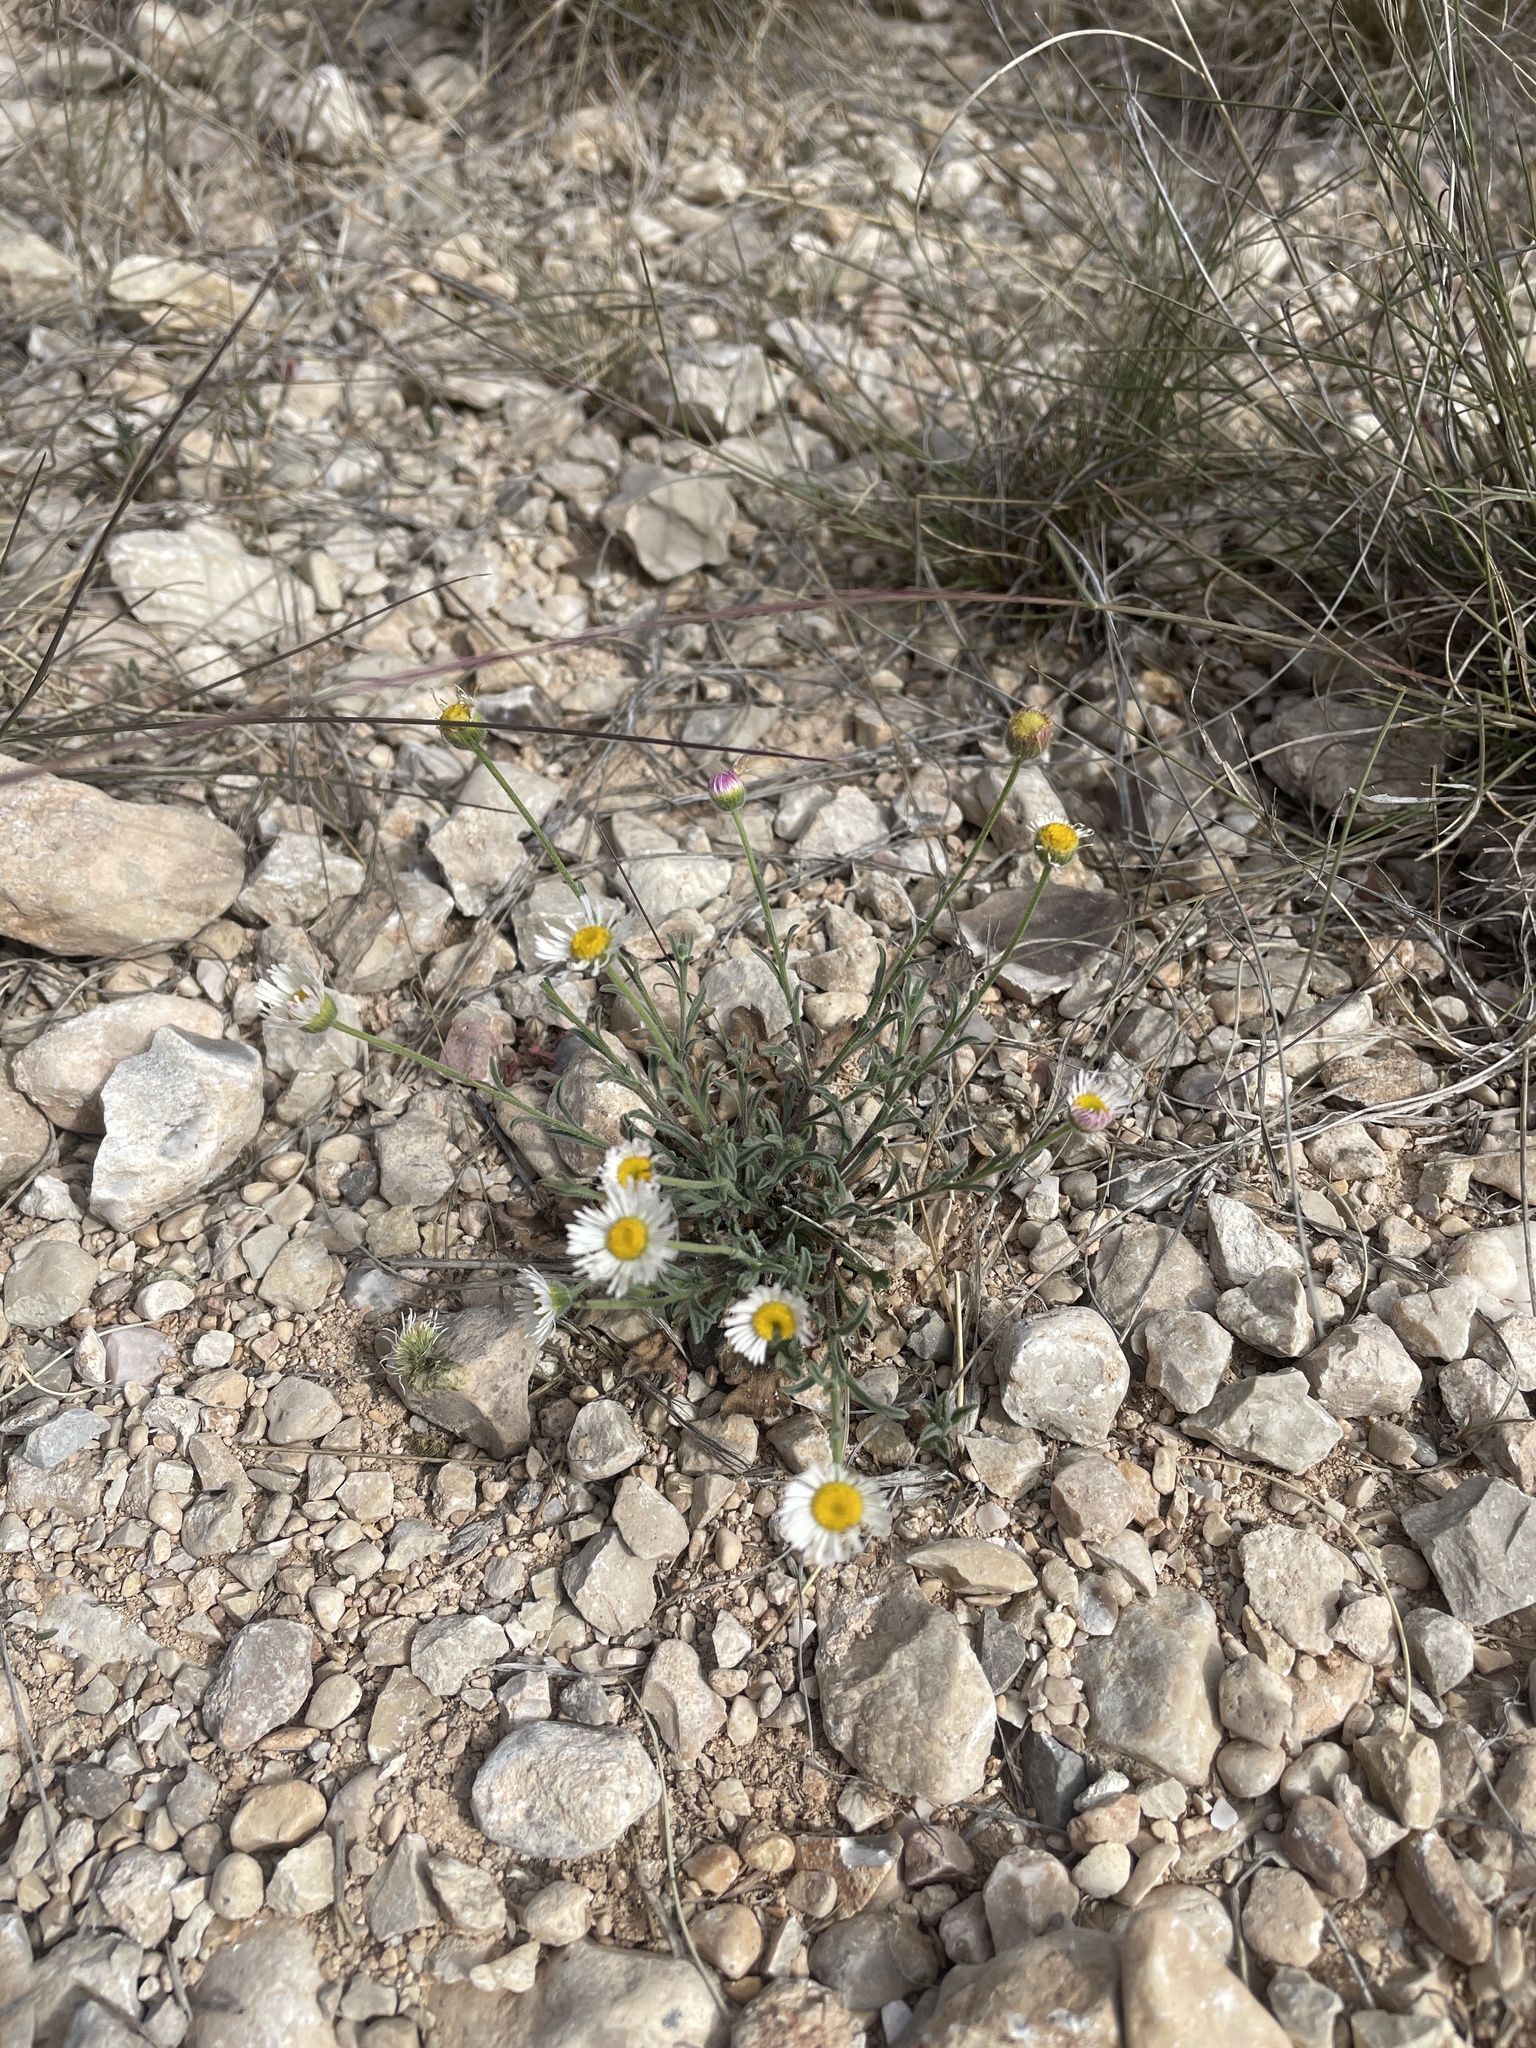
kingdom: Plantae
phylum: Tracheophyta
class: Magnoliopsida
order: Asterales
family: Asteraceae
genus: Erigeron
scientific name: Erigeron modestus
